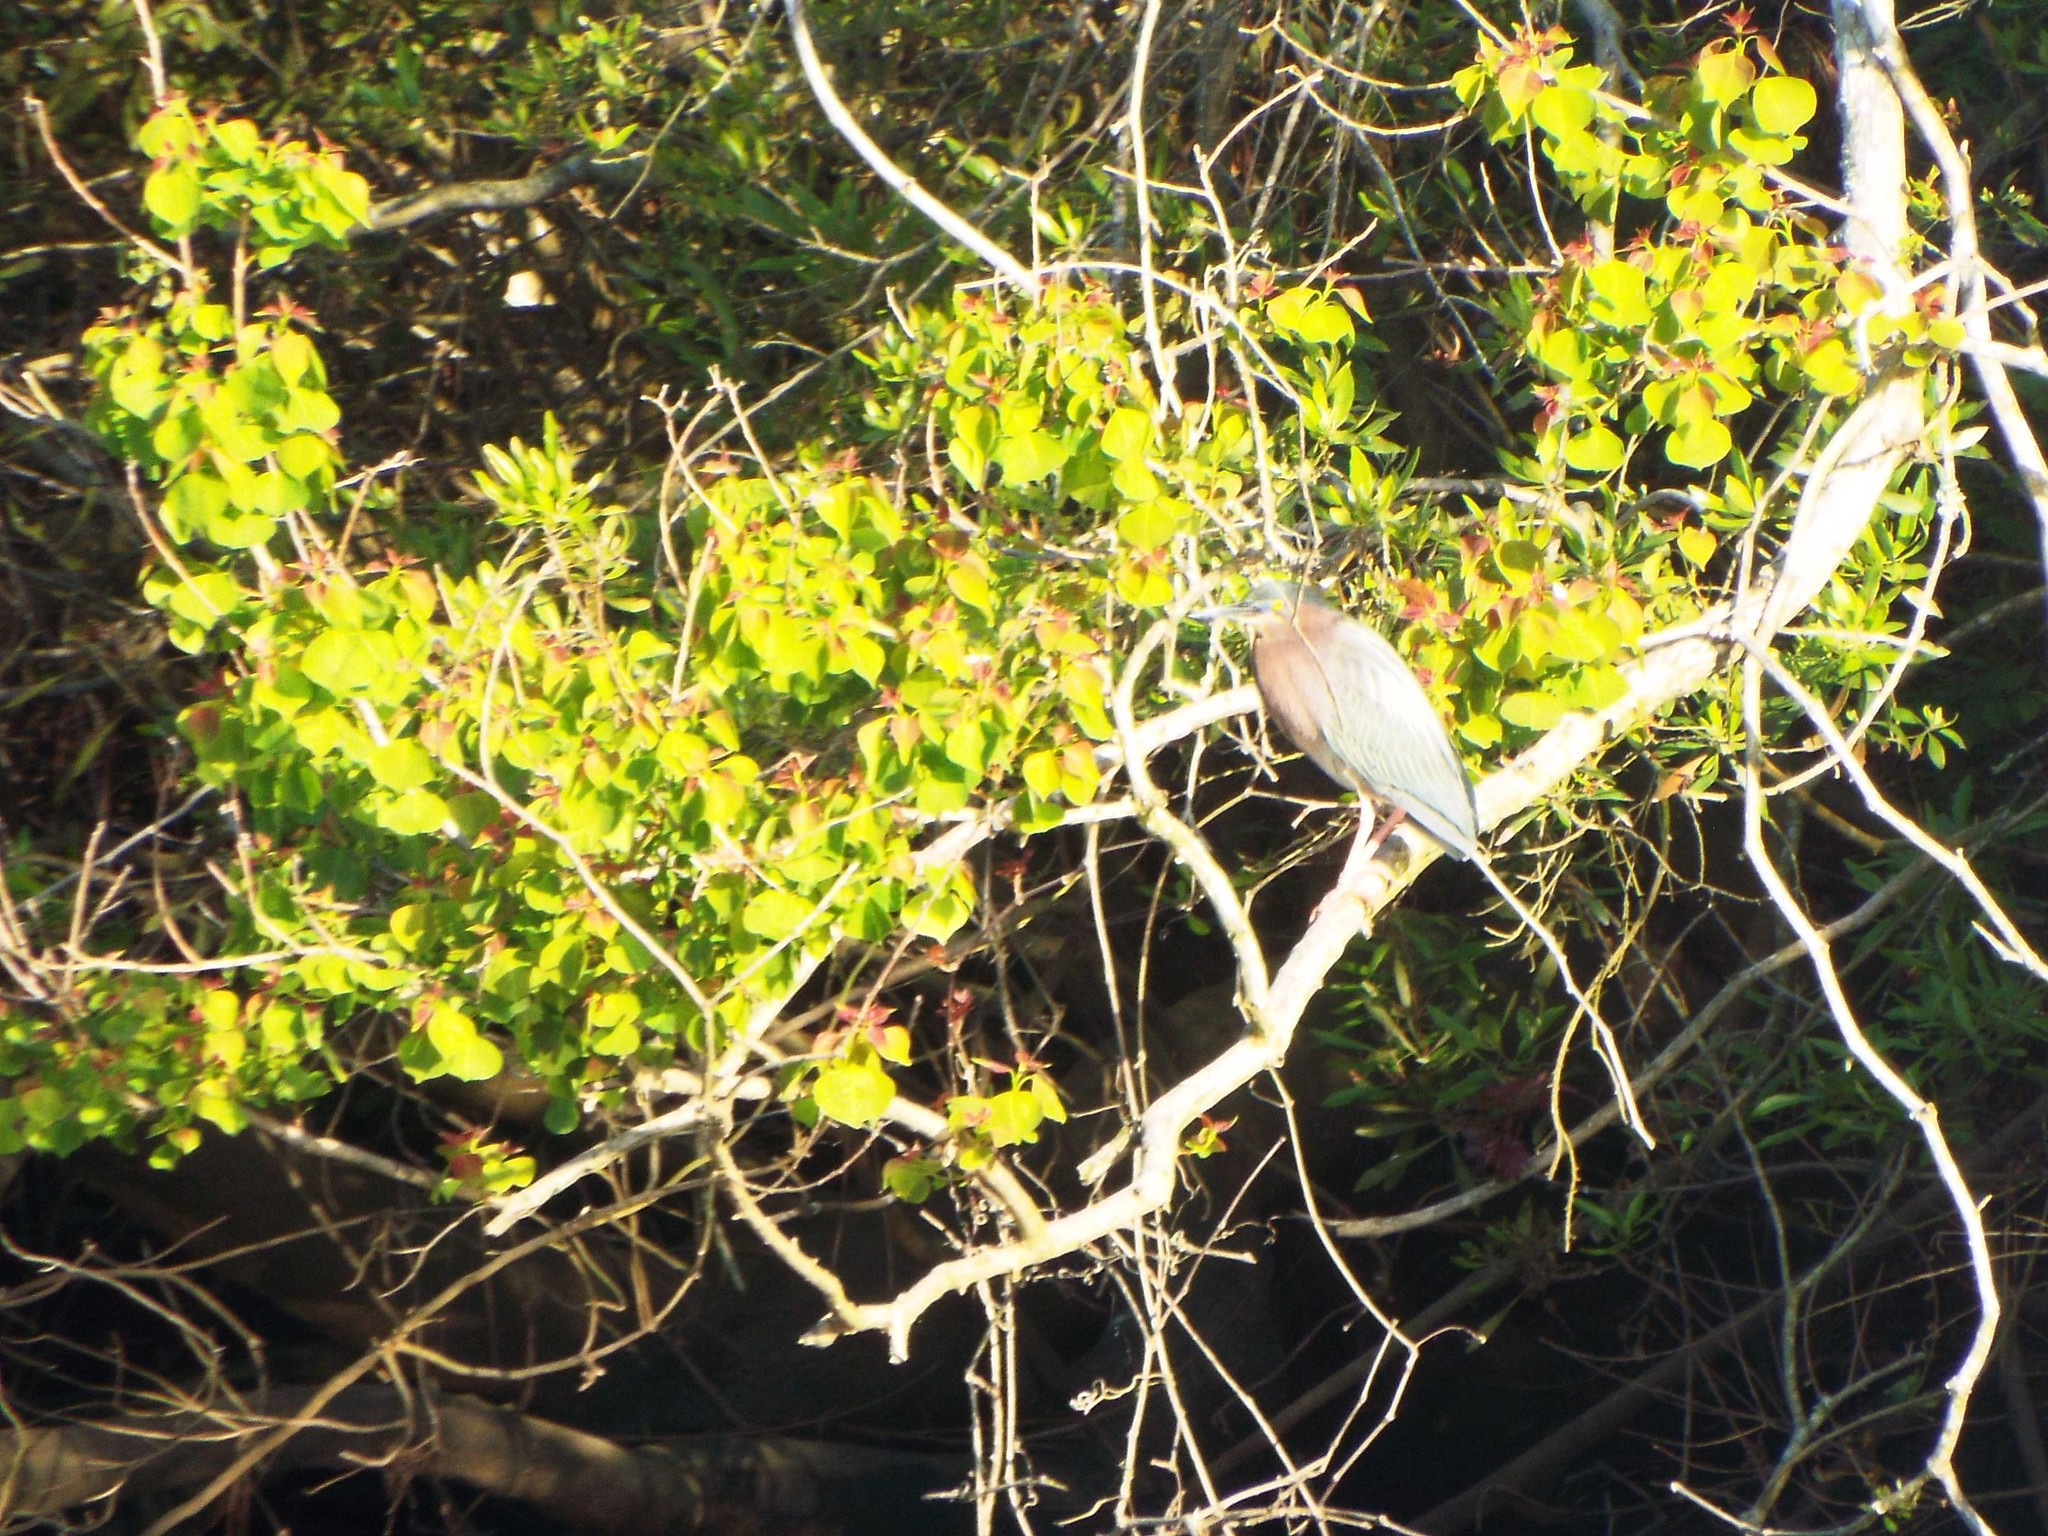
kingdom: Animalia
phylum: Chordata
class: Aves
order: Pelecaniformes
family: Ardeidae
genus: Butorides
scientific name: Butorides virescens
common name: Green heron
